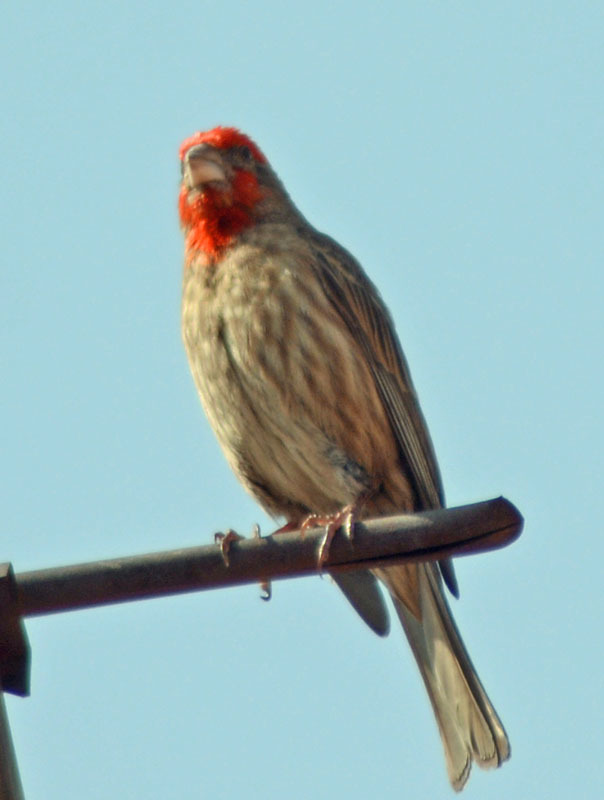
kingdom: Animalia
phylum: Chordata
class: Aves
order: Passeriformes
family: Fringillidae
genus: Haemorhous
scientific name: Haemorhous mexicanus
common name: House finch
